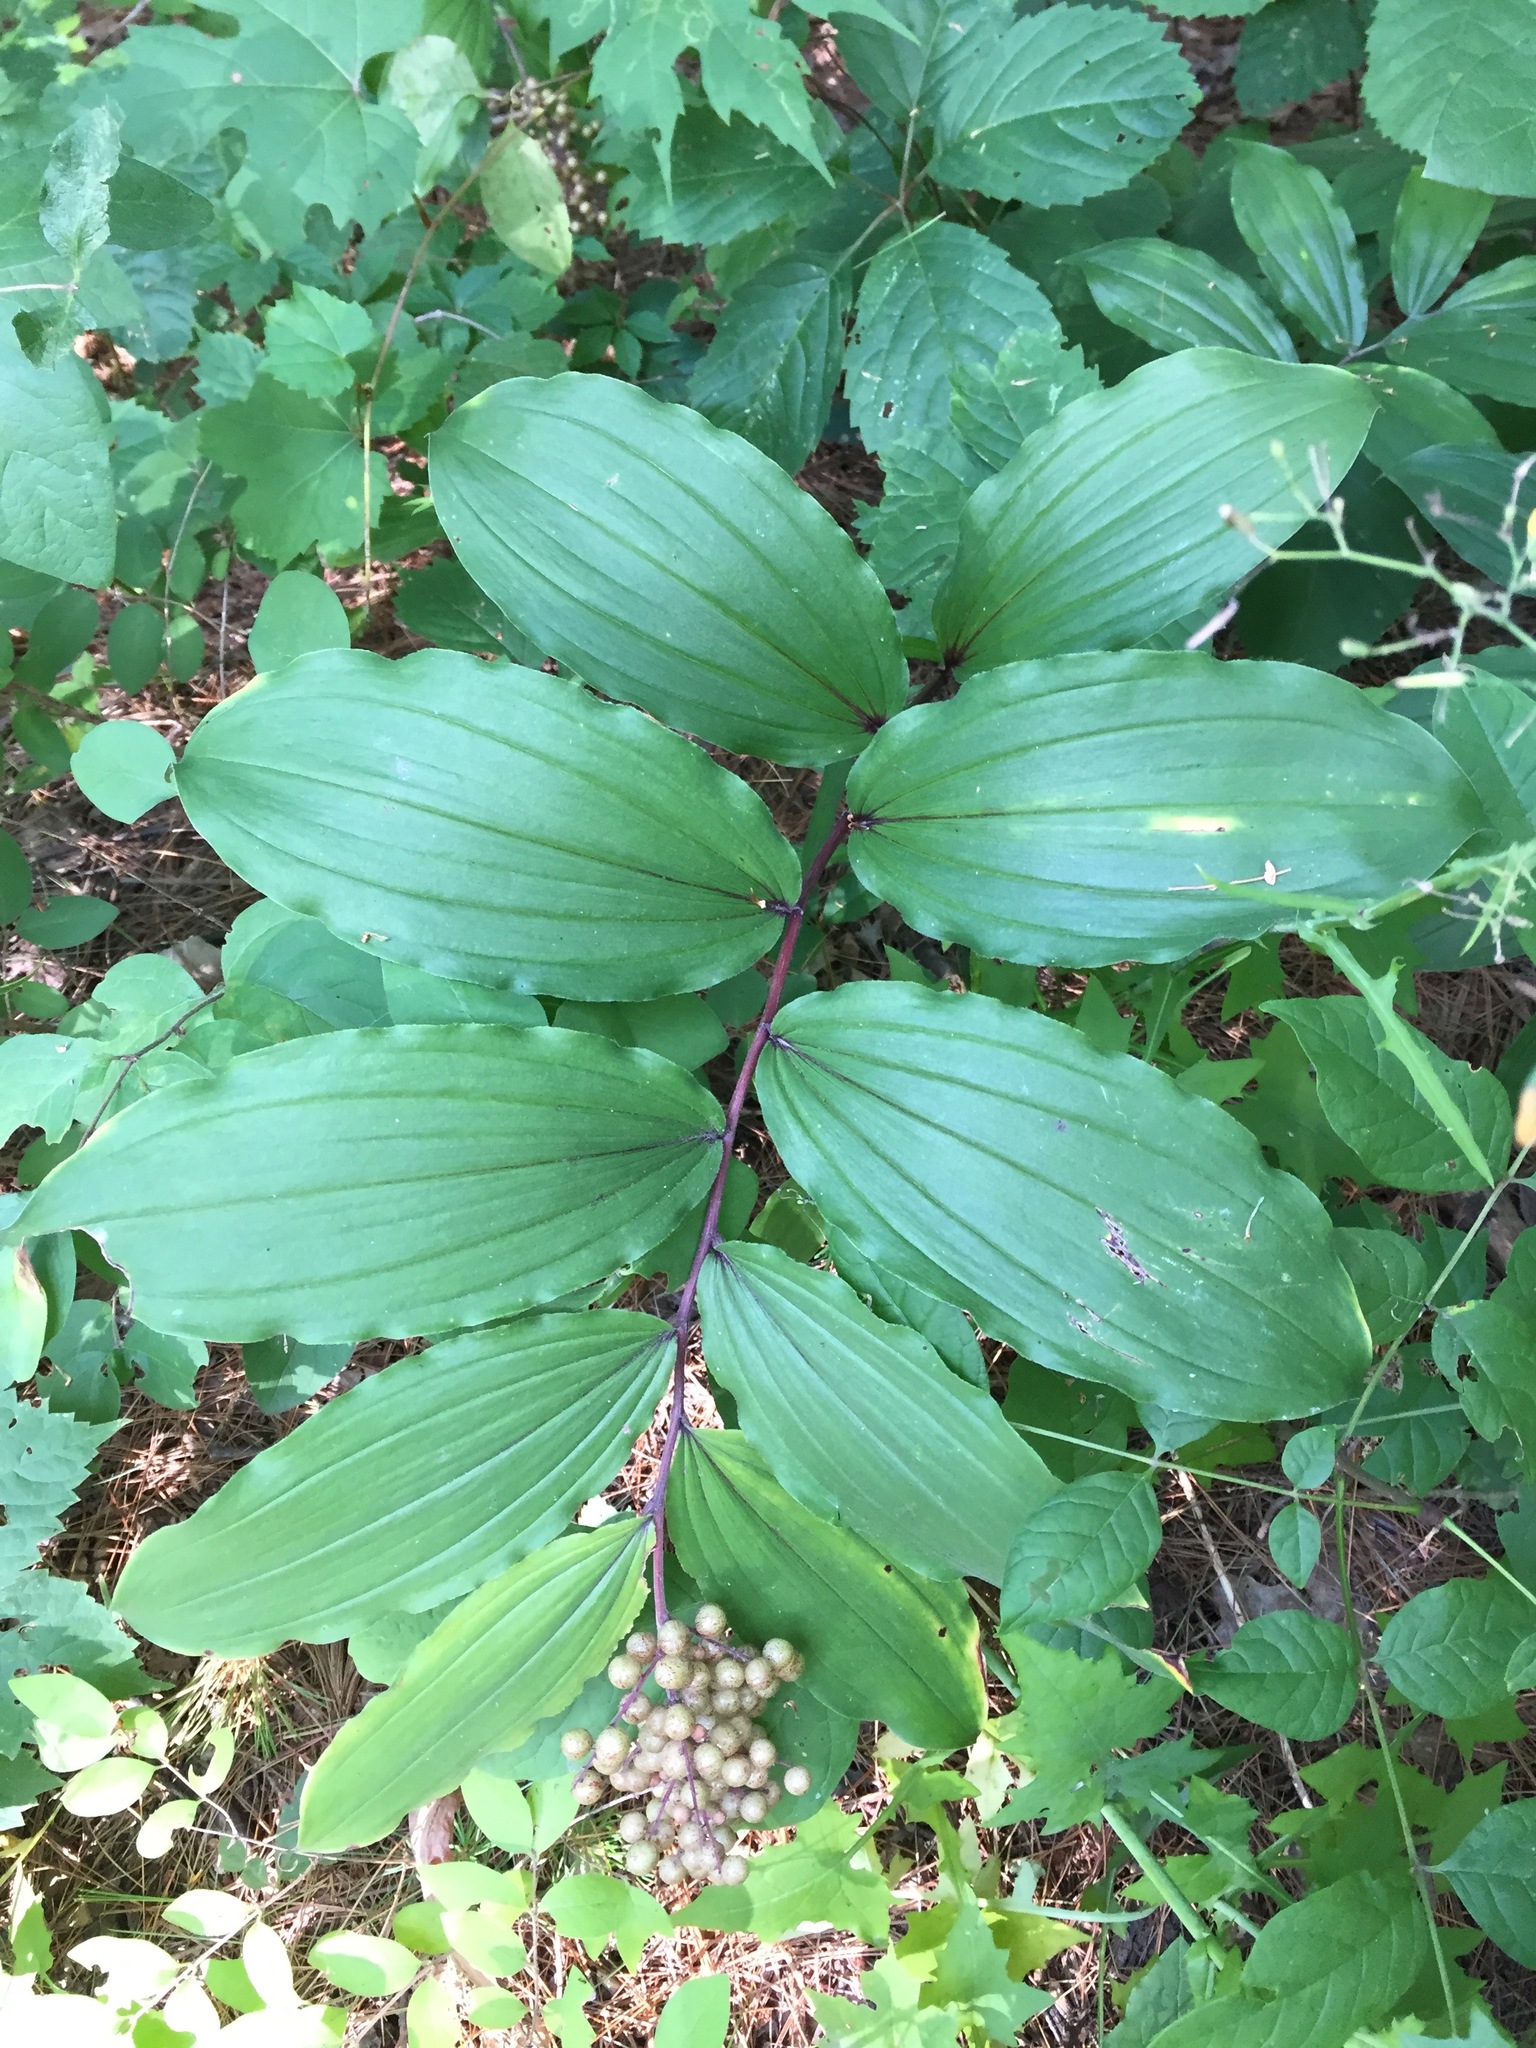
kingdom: Plantae
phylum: Tracheophyta
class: Liliopsida
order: Asparagales
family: Asparagaceae
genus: Maianthemum
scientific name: Maianthemum racemosum
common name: False spikenard
